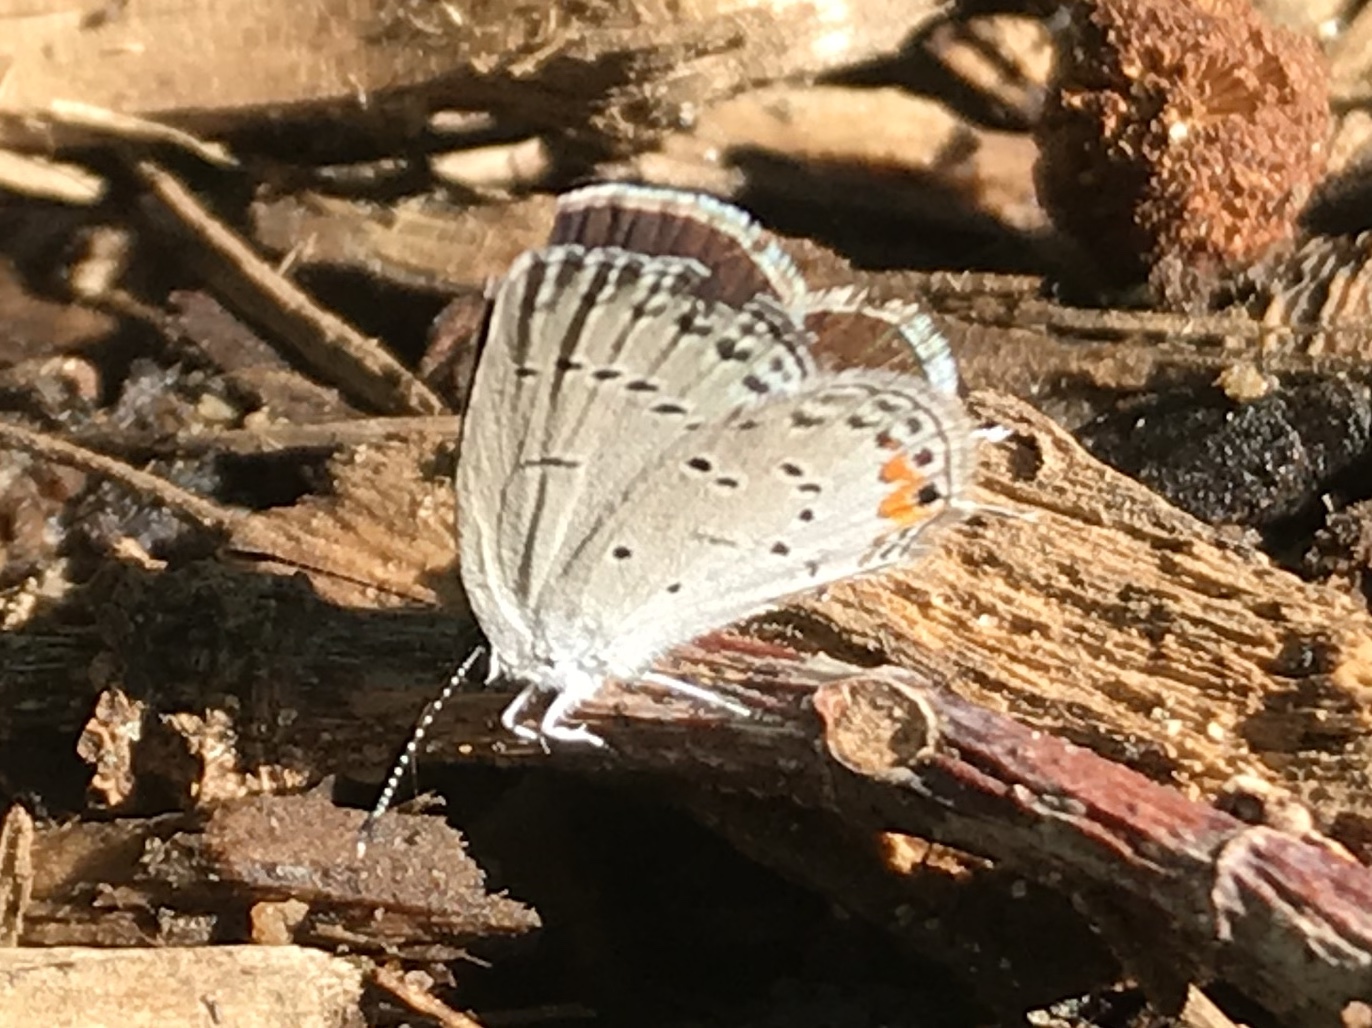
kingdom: Animalia
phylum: Arthropoda
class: Insecta
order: Lepidoptera
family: Lycaenidae
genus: Elkalyce
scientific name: Elkalyce comyntas
